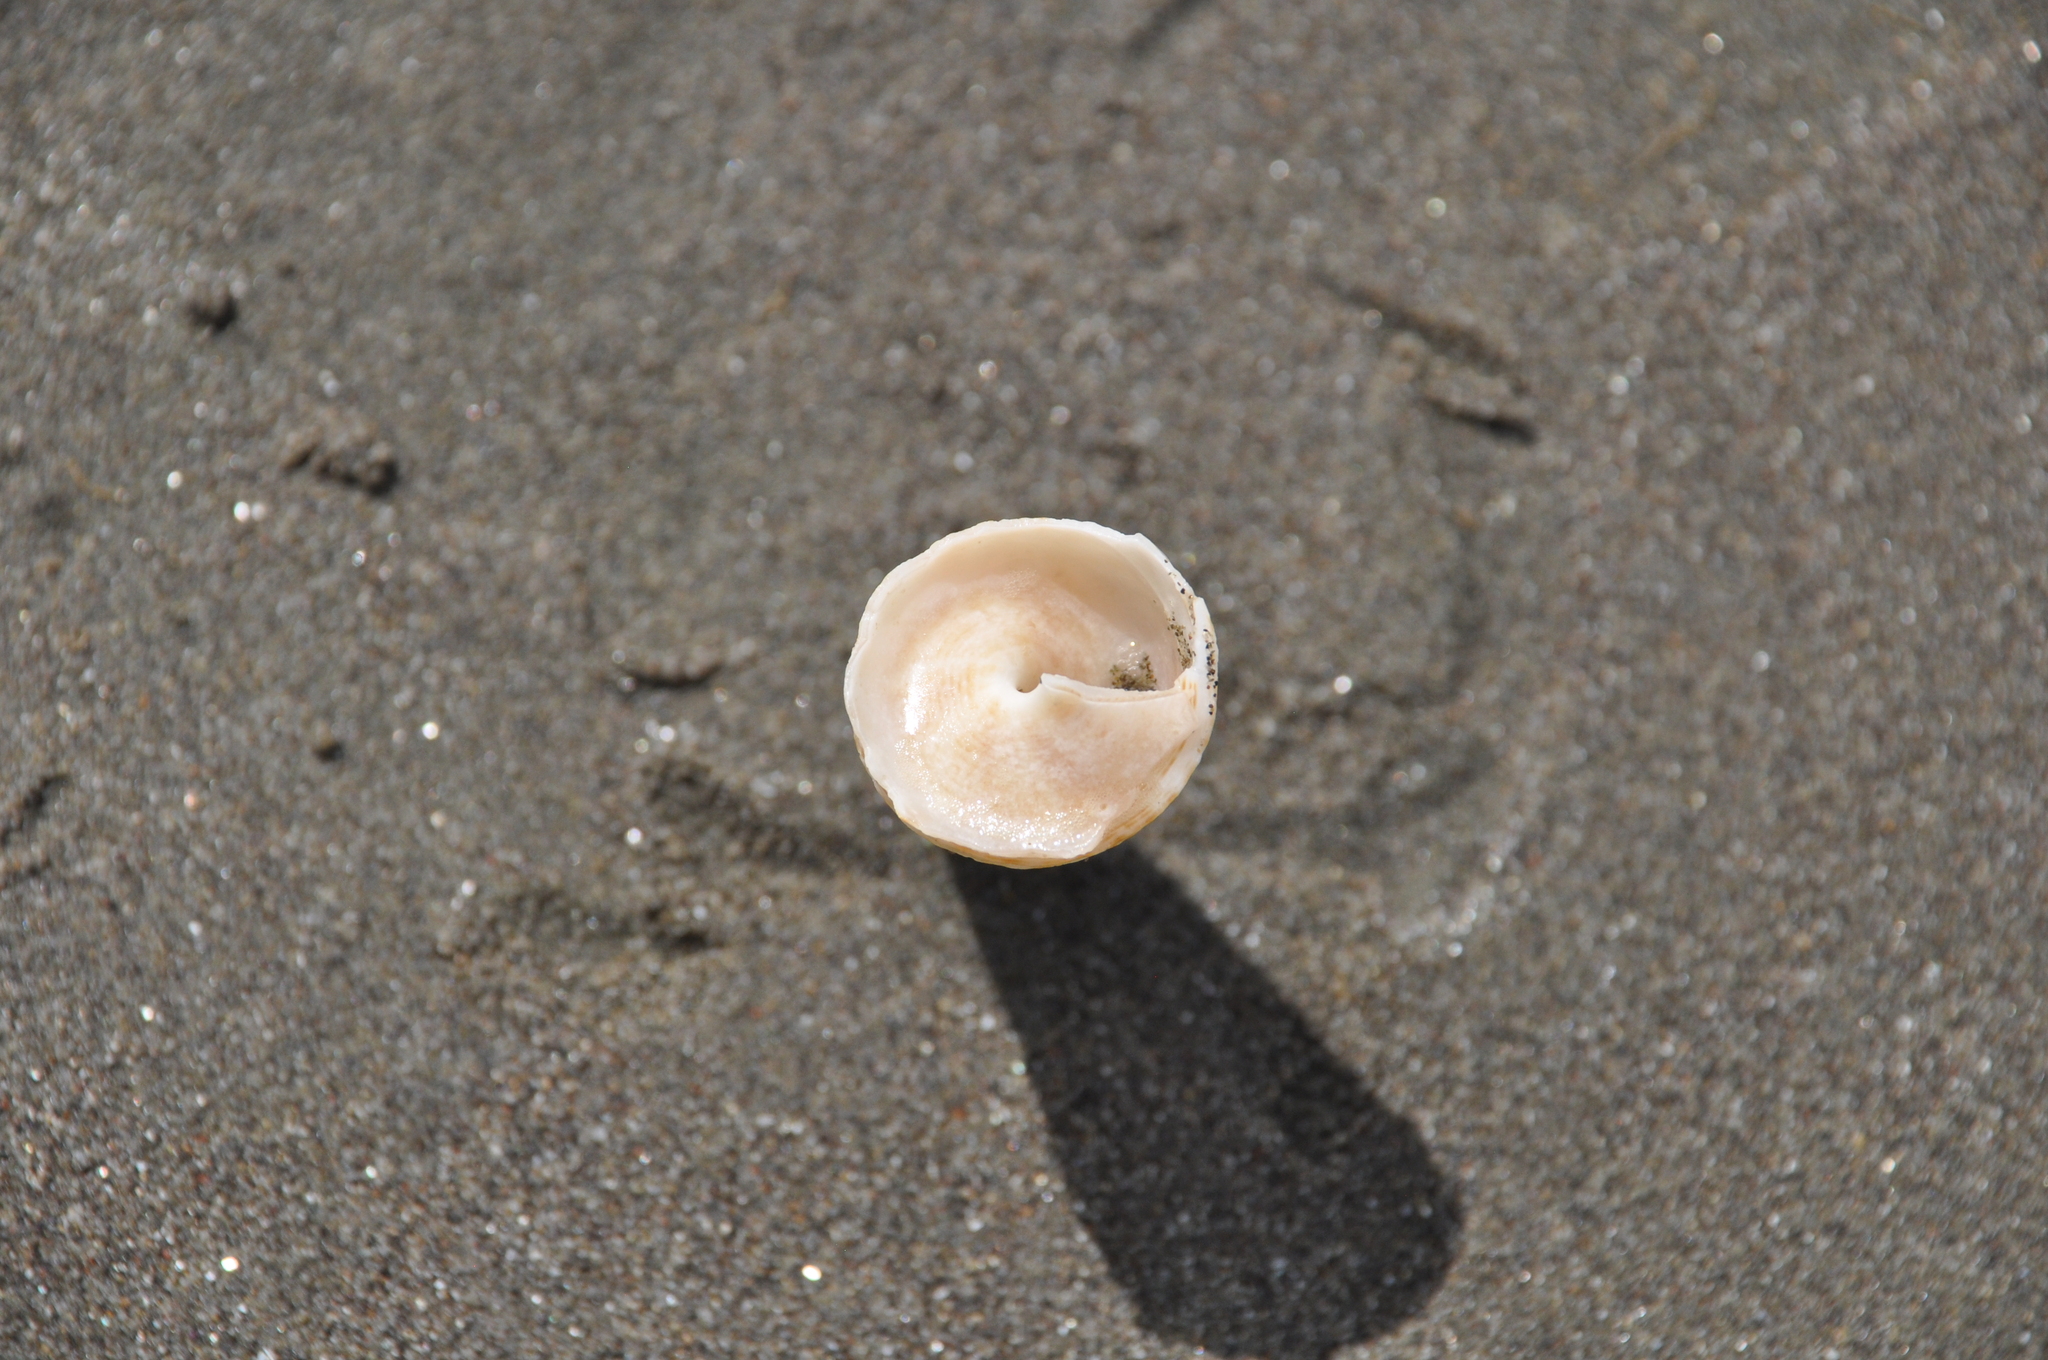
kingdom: Animalia
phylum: Mollusca
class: Gastropoda
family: Turritellidae
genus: Maoricolpus
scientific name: Maoricolpus roseus
